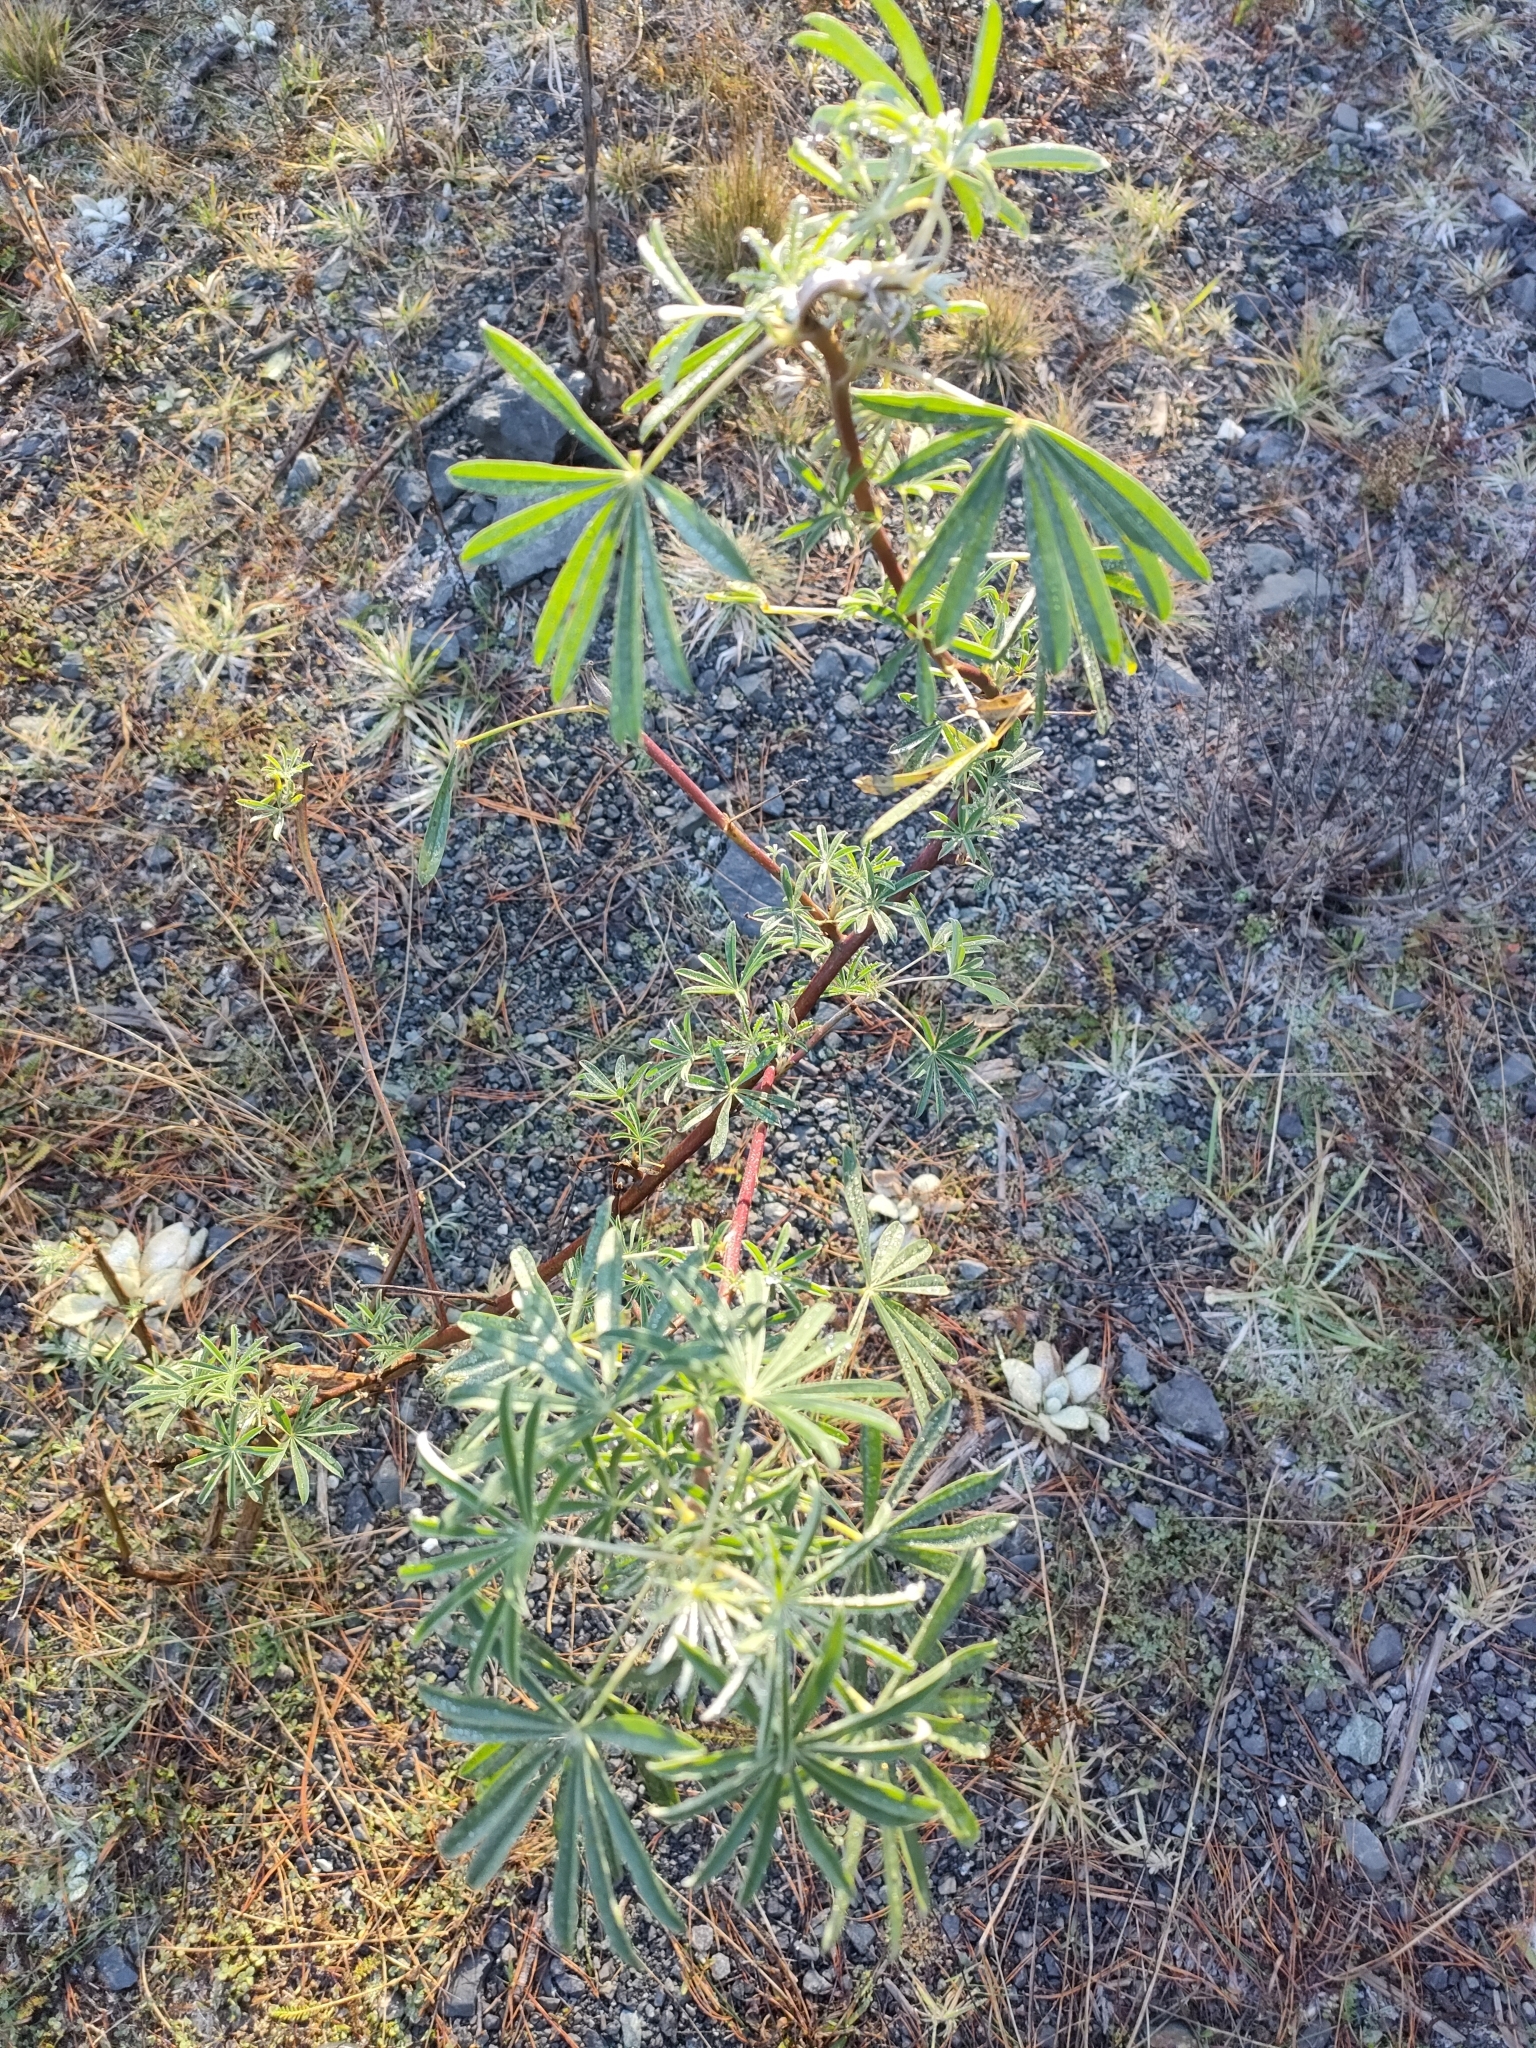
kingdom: Plantae
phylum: Tracheophyta
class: Magnoliopsida
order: Fabales
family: Fabaceae
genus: Lupinus
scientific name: Lupinus arboreus
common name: Yellow bush lupine
